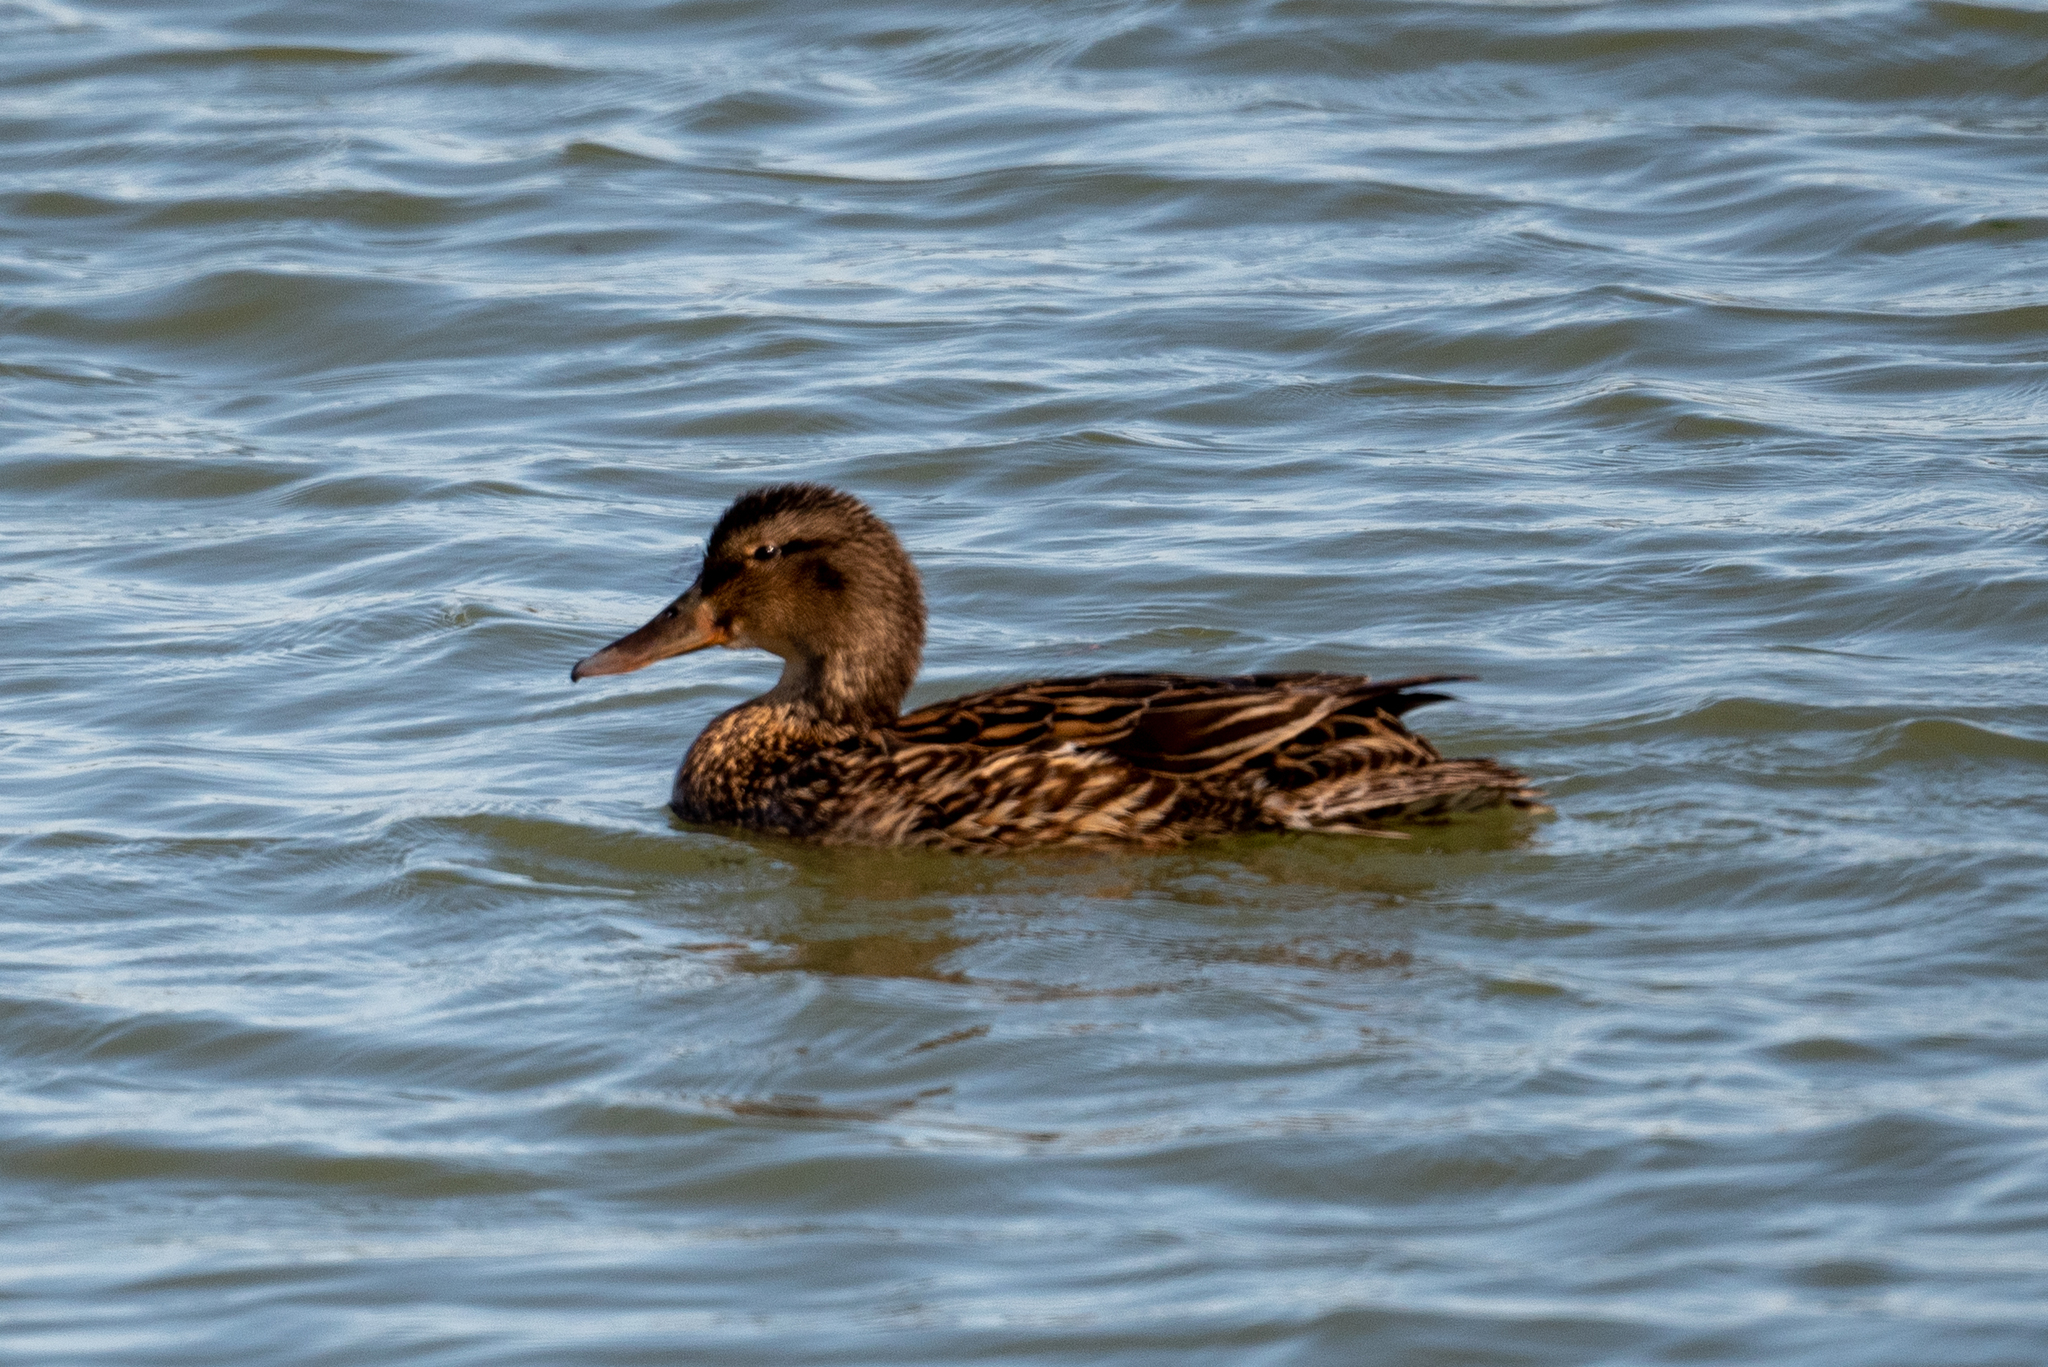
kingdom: Animalia
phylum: Chordata
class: Aves
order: Anseriformes
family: Anatidae
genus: Anas
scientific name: Anas platyrhynchos
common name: Mallard
